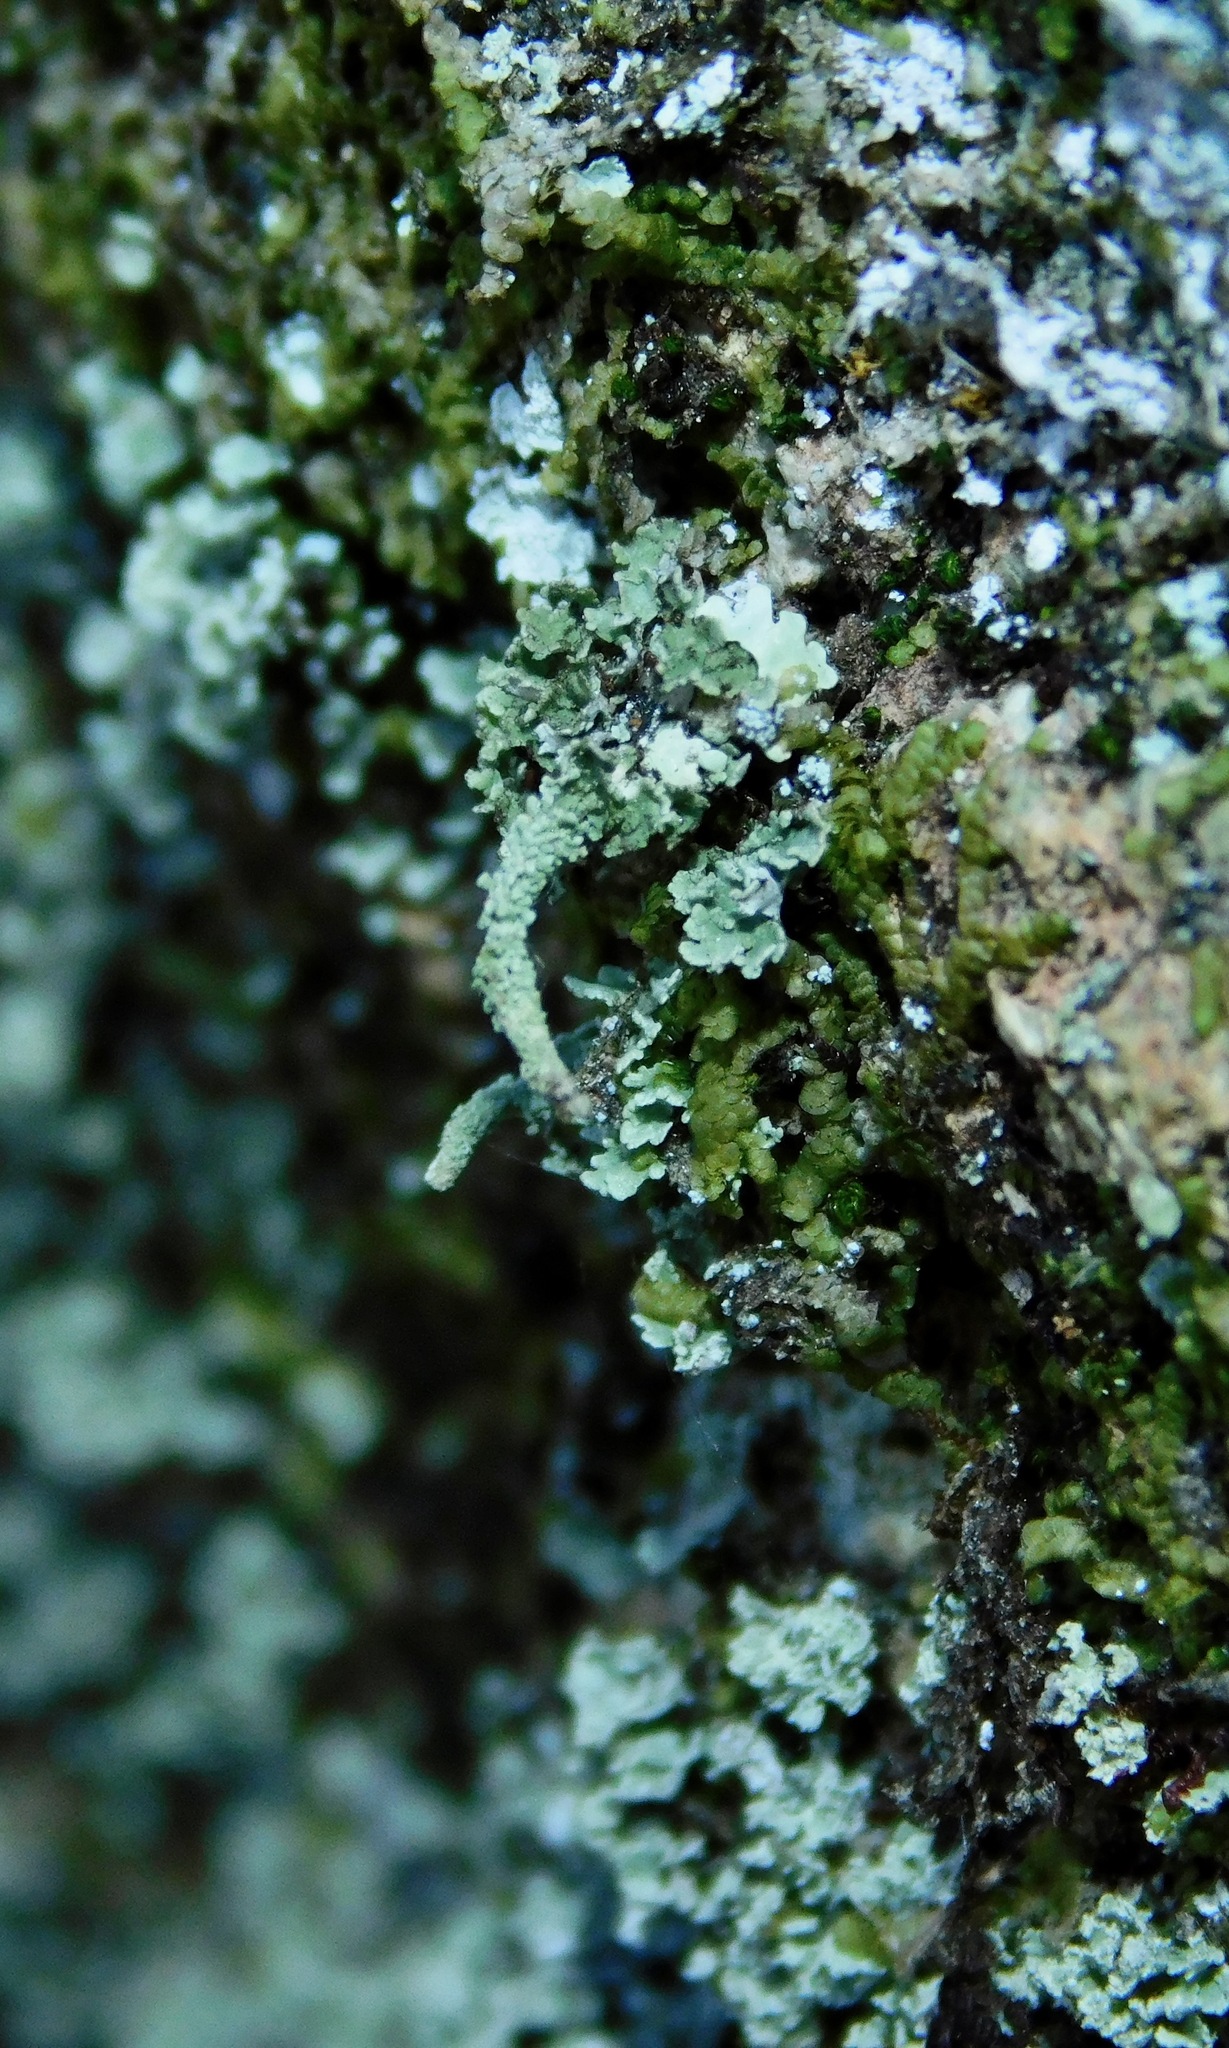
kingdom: Fungi
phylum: Ascomycota
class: Lecanoromycetes
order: Lecanorales
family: Cladoniaceae
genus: Cladonia
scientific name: Cladonia coniocraea
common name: Common powderhorn
